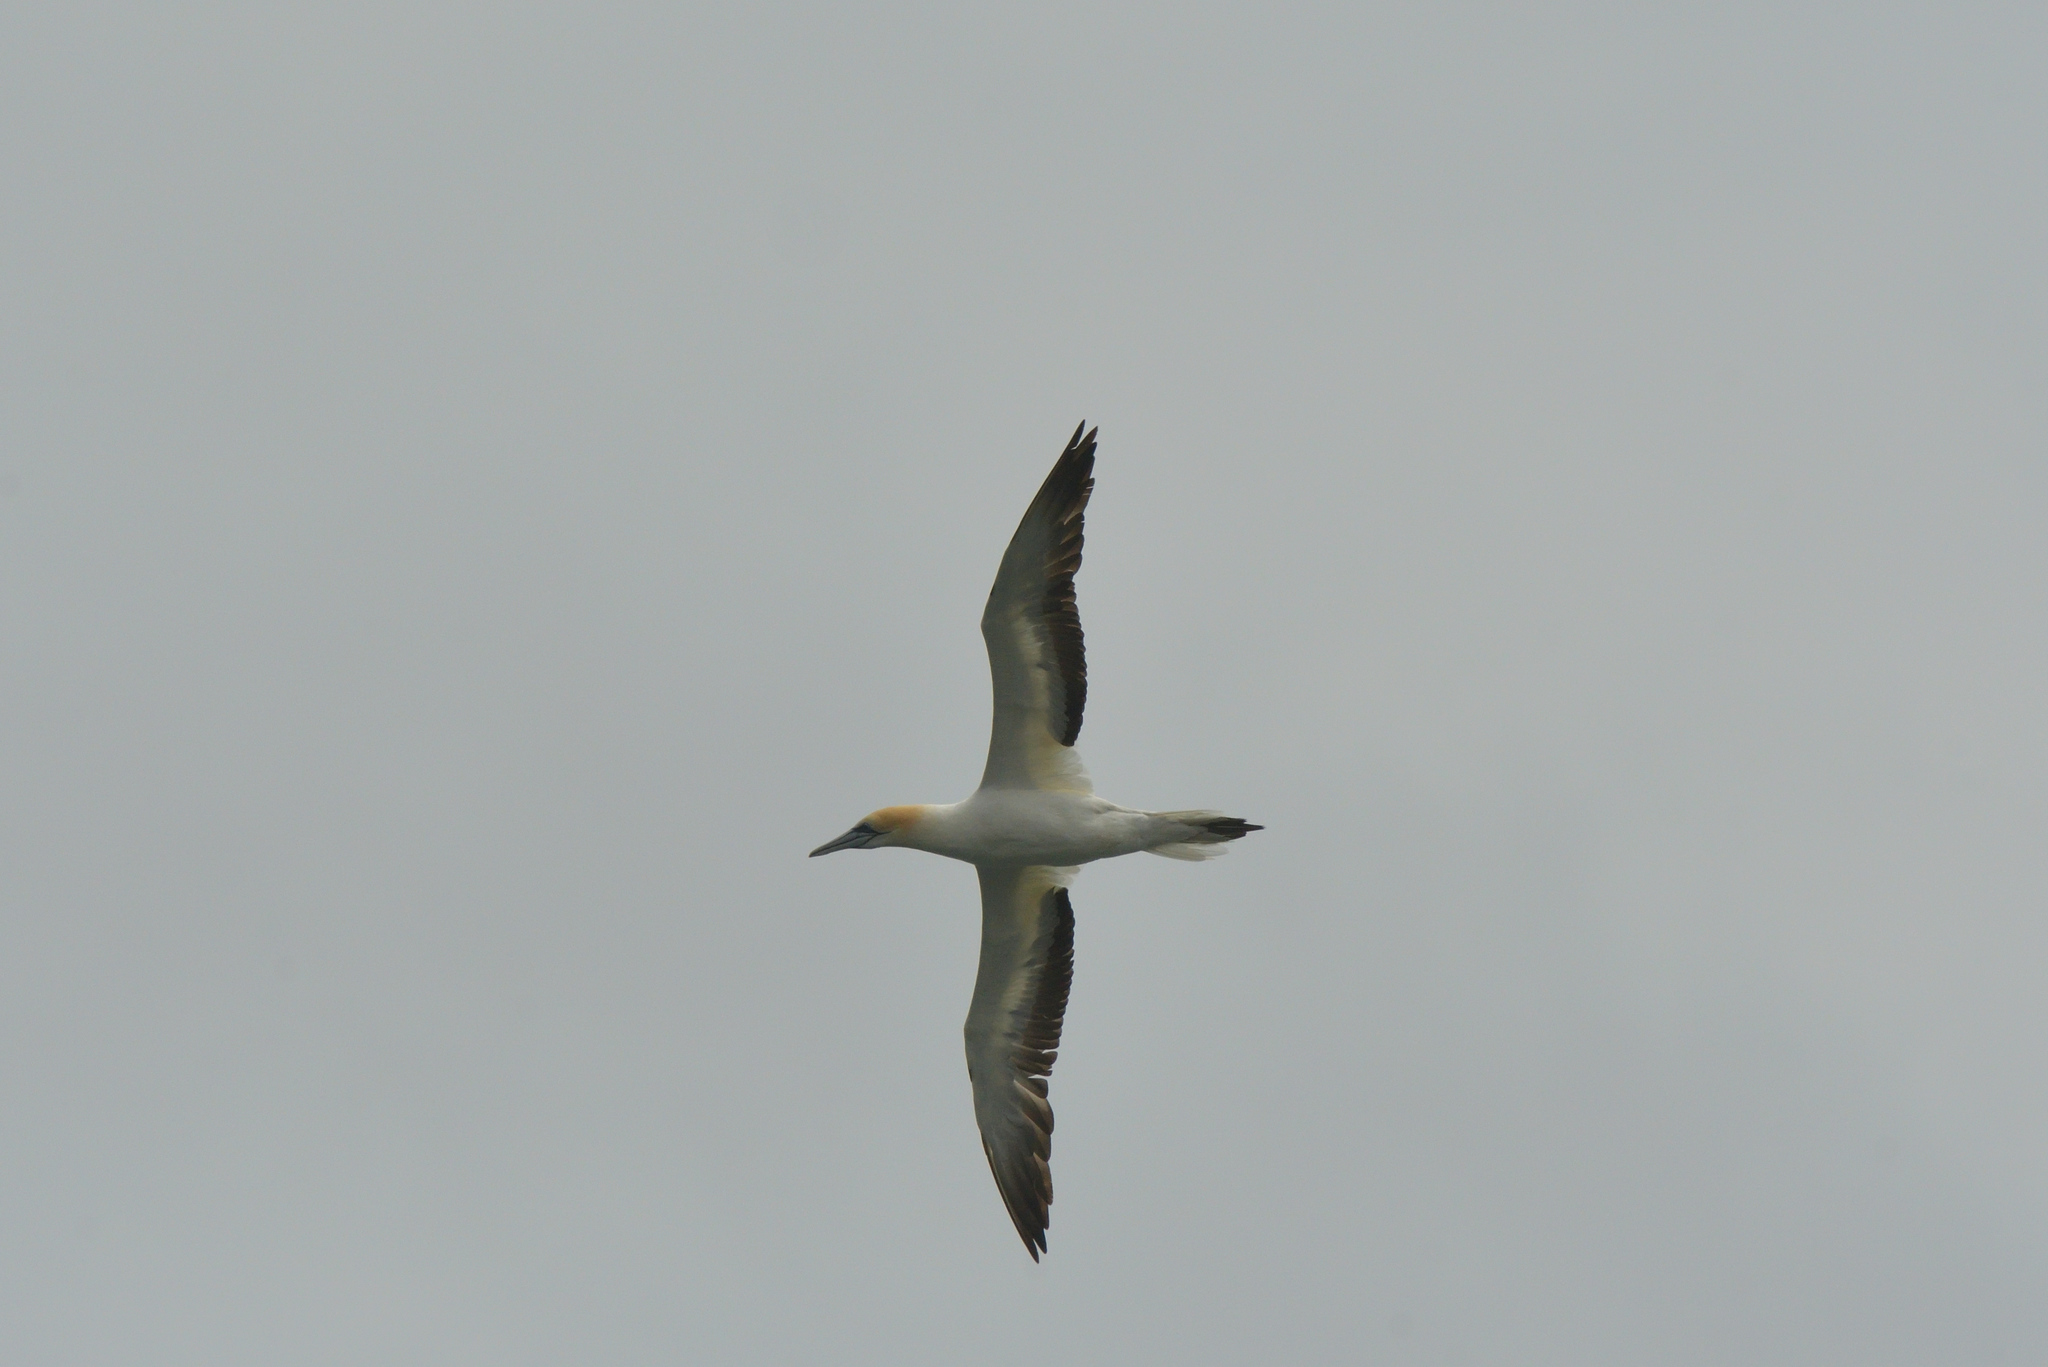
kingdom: Animalia
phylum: Chordata
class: Aves
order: Suliformes
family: Sulidae
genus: Morus
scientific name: Morus serrator
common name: Australasian gannet
